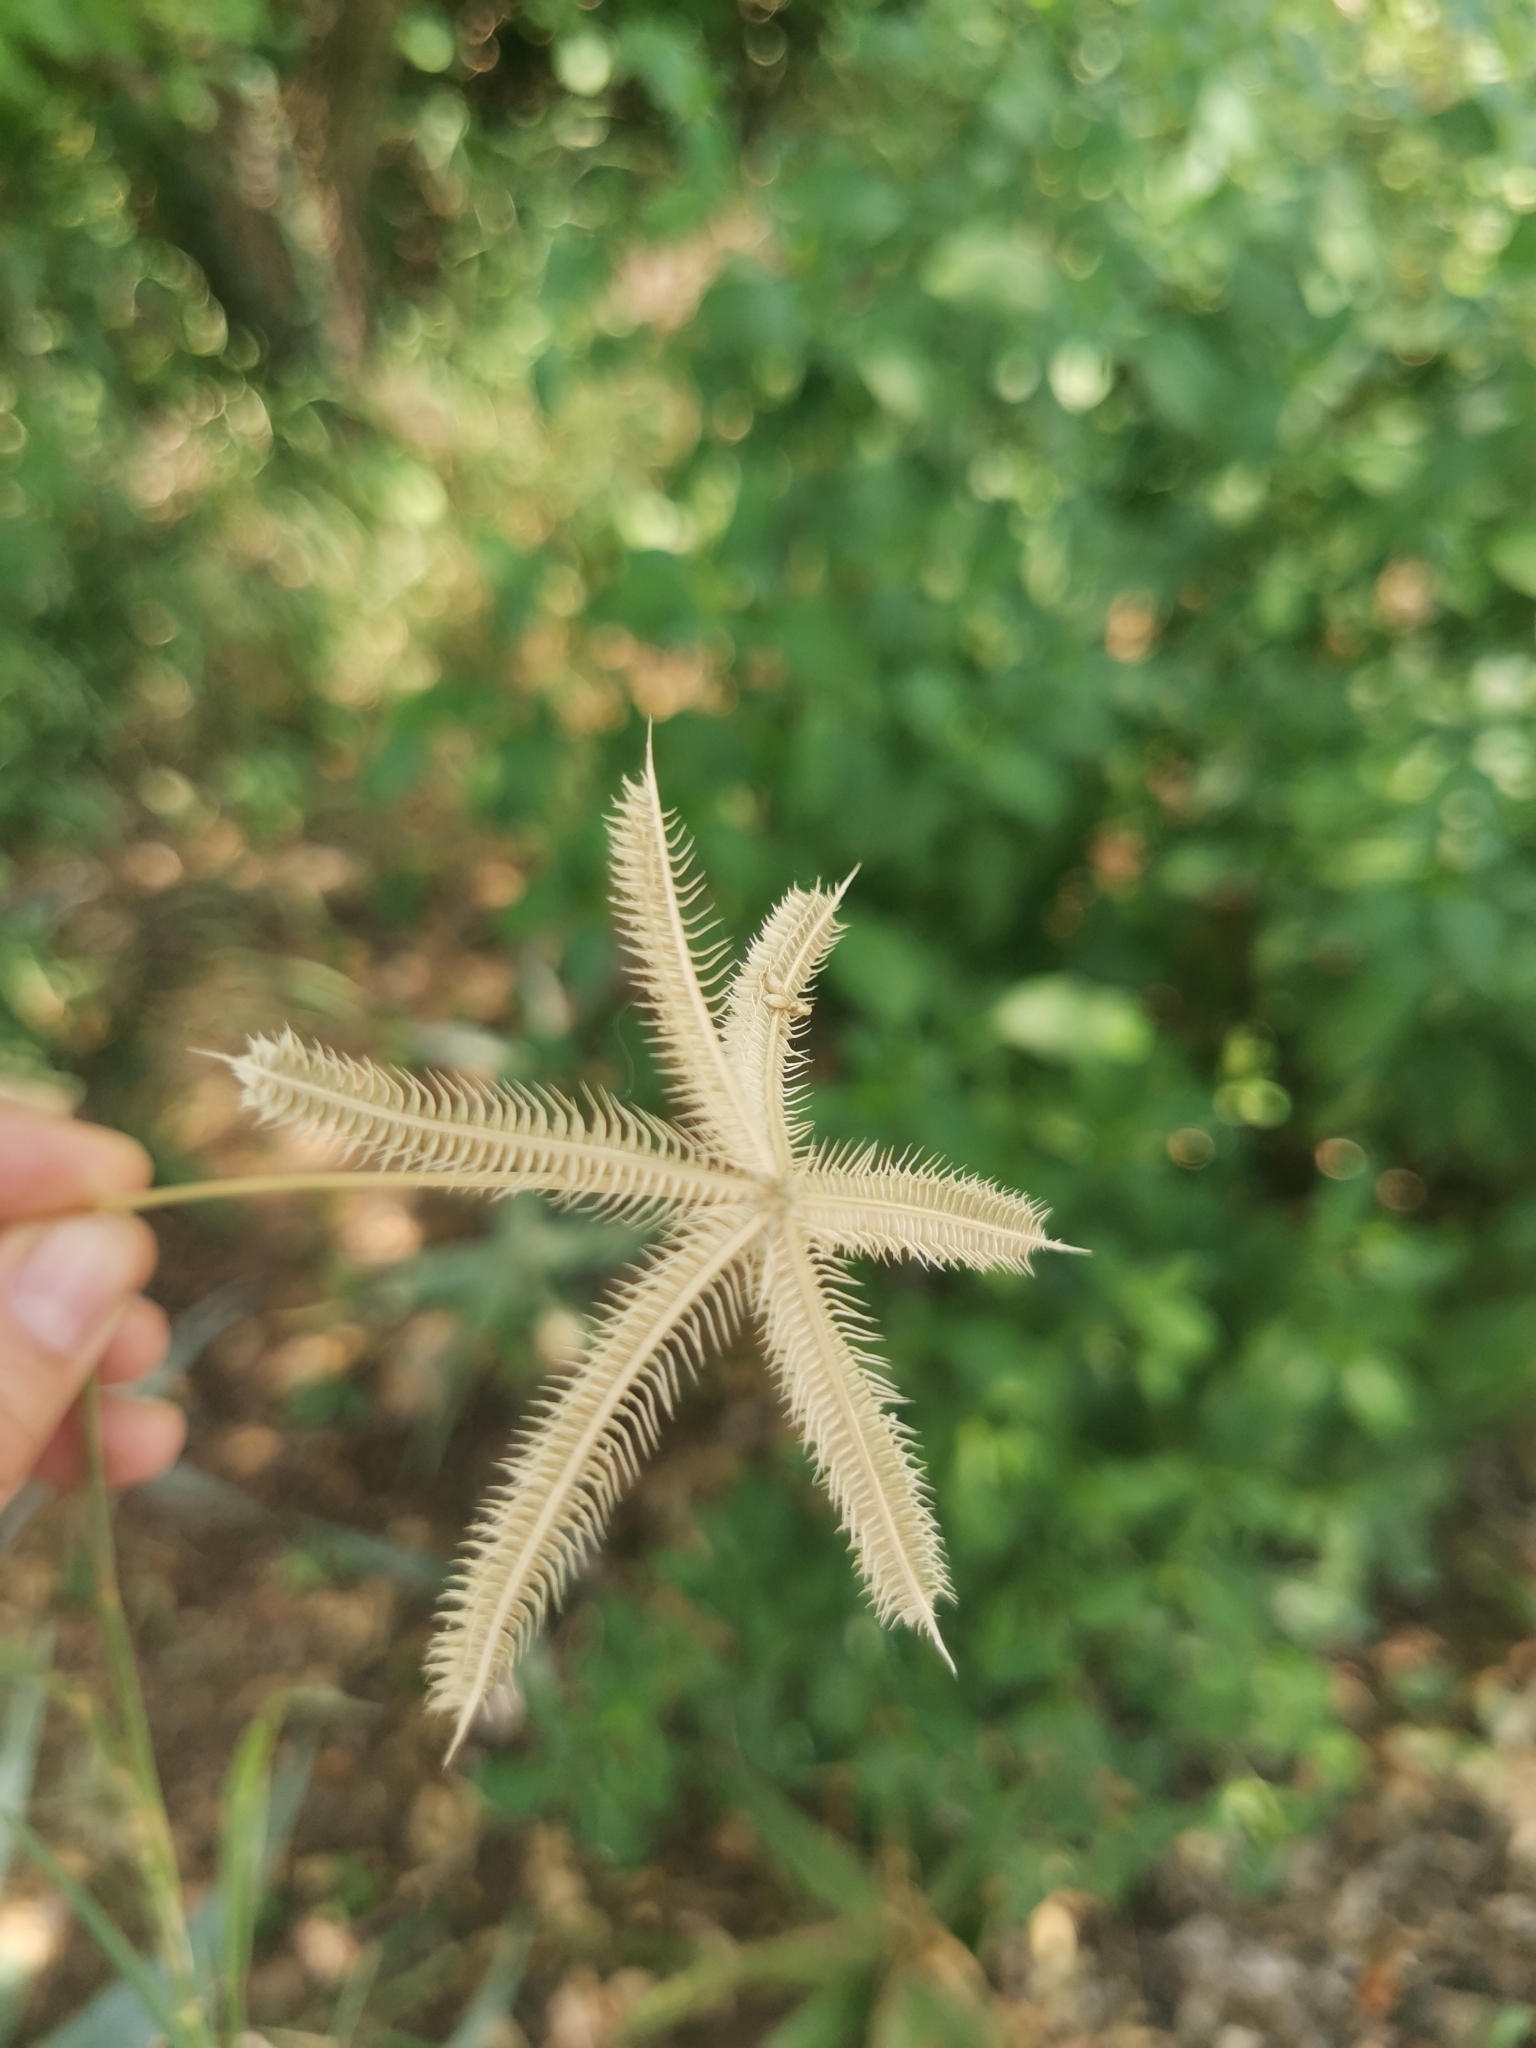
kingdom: Plantae
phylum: Tracheophyta
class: Liliopsida
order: Poales
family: Poaceae
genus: Dactyloctenium
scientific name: Dactyloctenium aegyptium
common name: Egyptian grass
